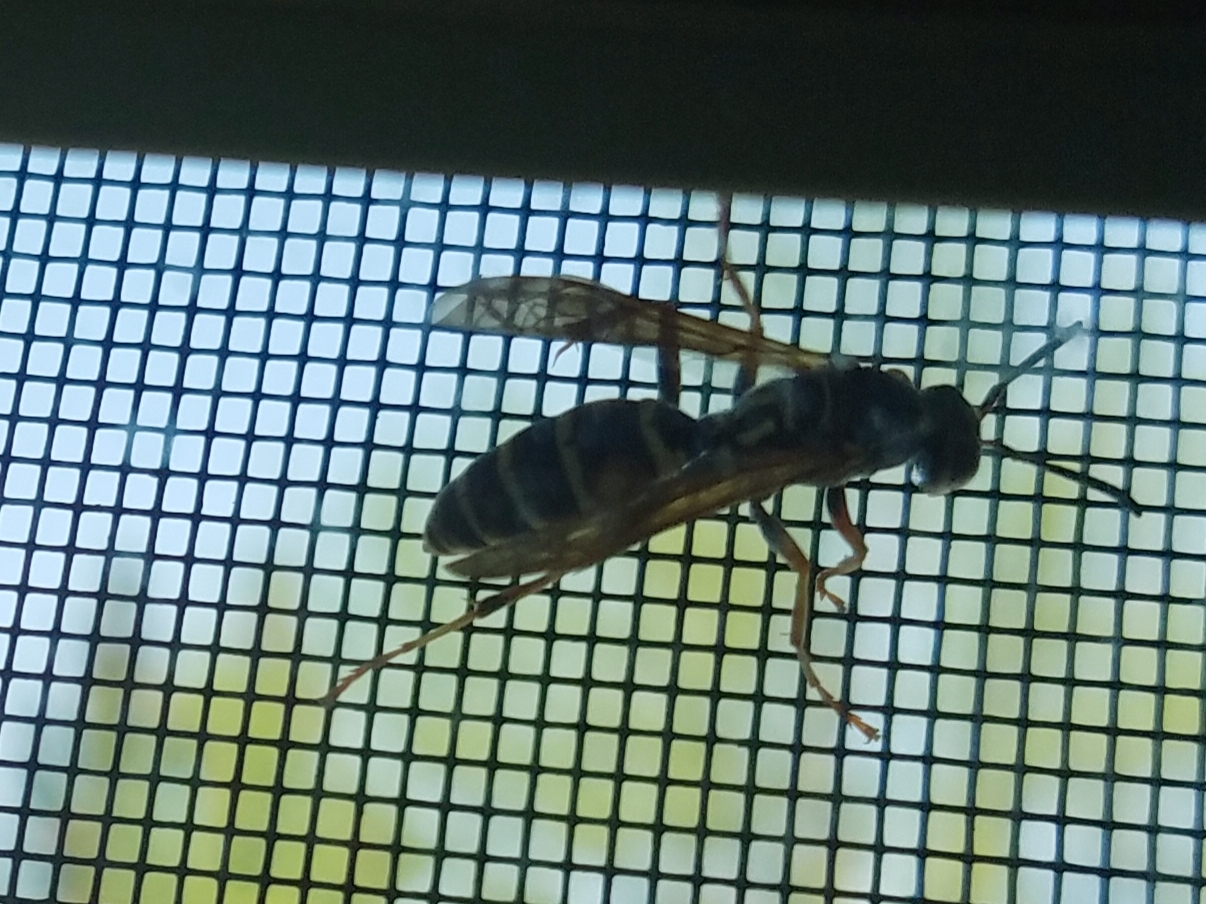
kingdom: Animalia
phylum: Arthropoda
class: Insecta
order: Hymenoptera
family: Eumenidae
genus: Polistes
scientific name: Polistes fuscatus
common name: Dark paper wasp
